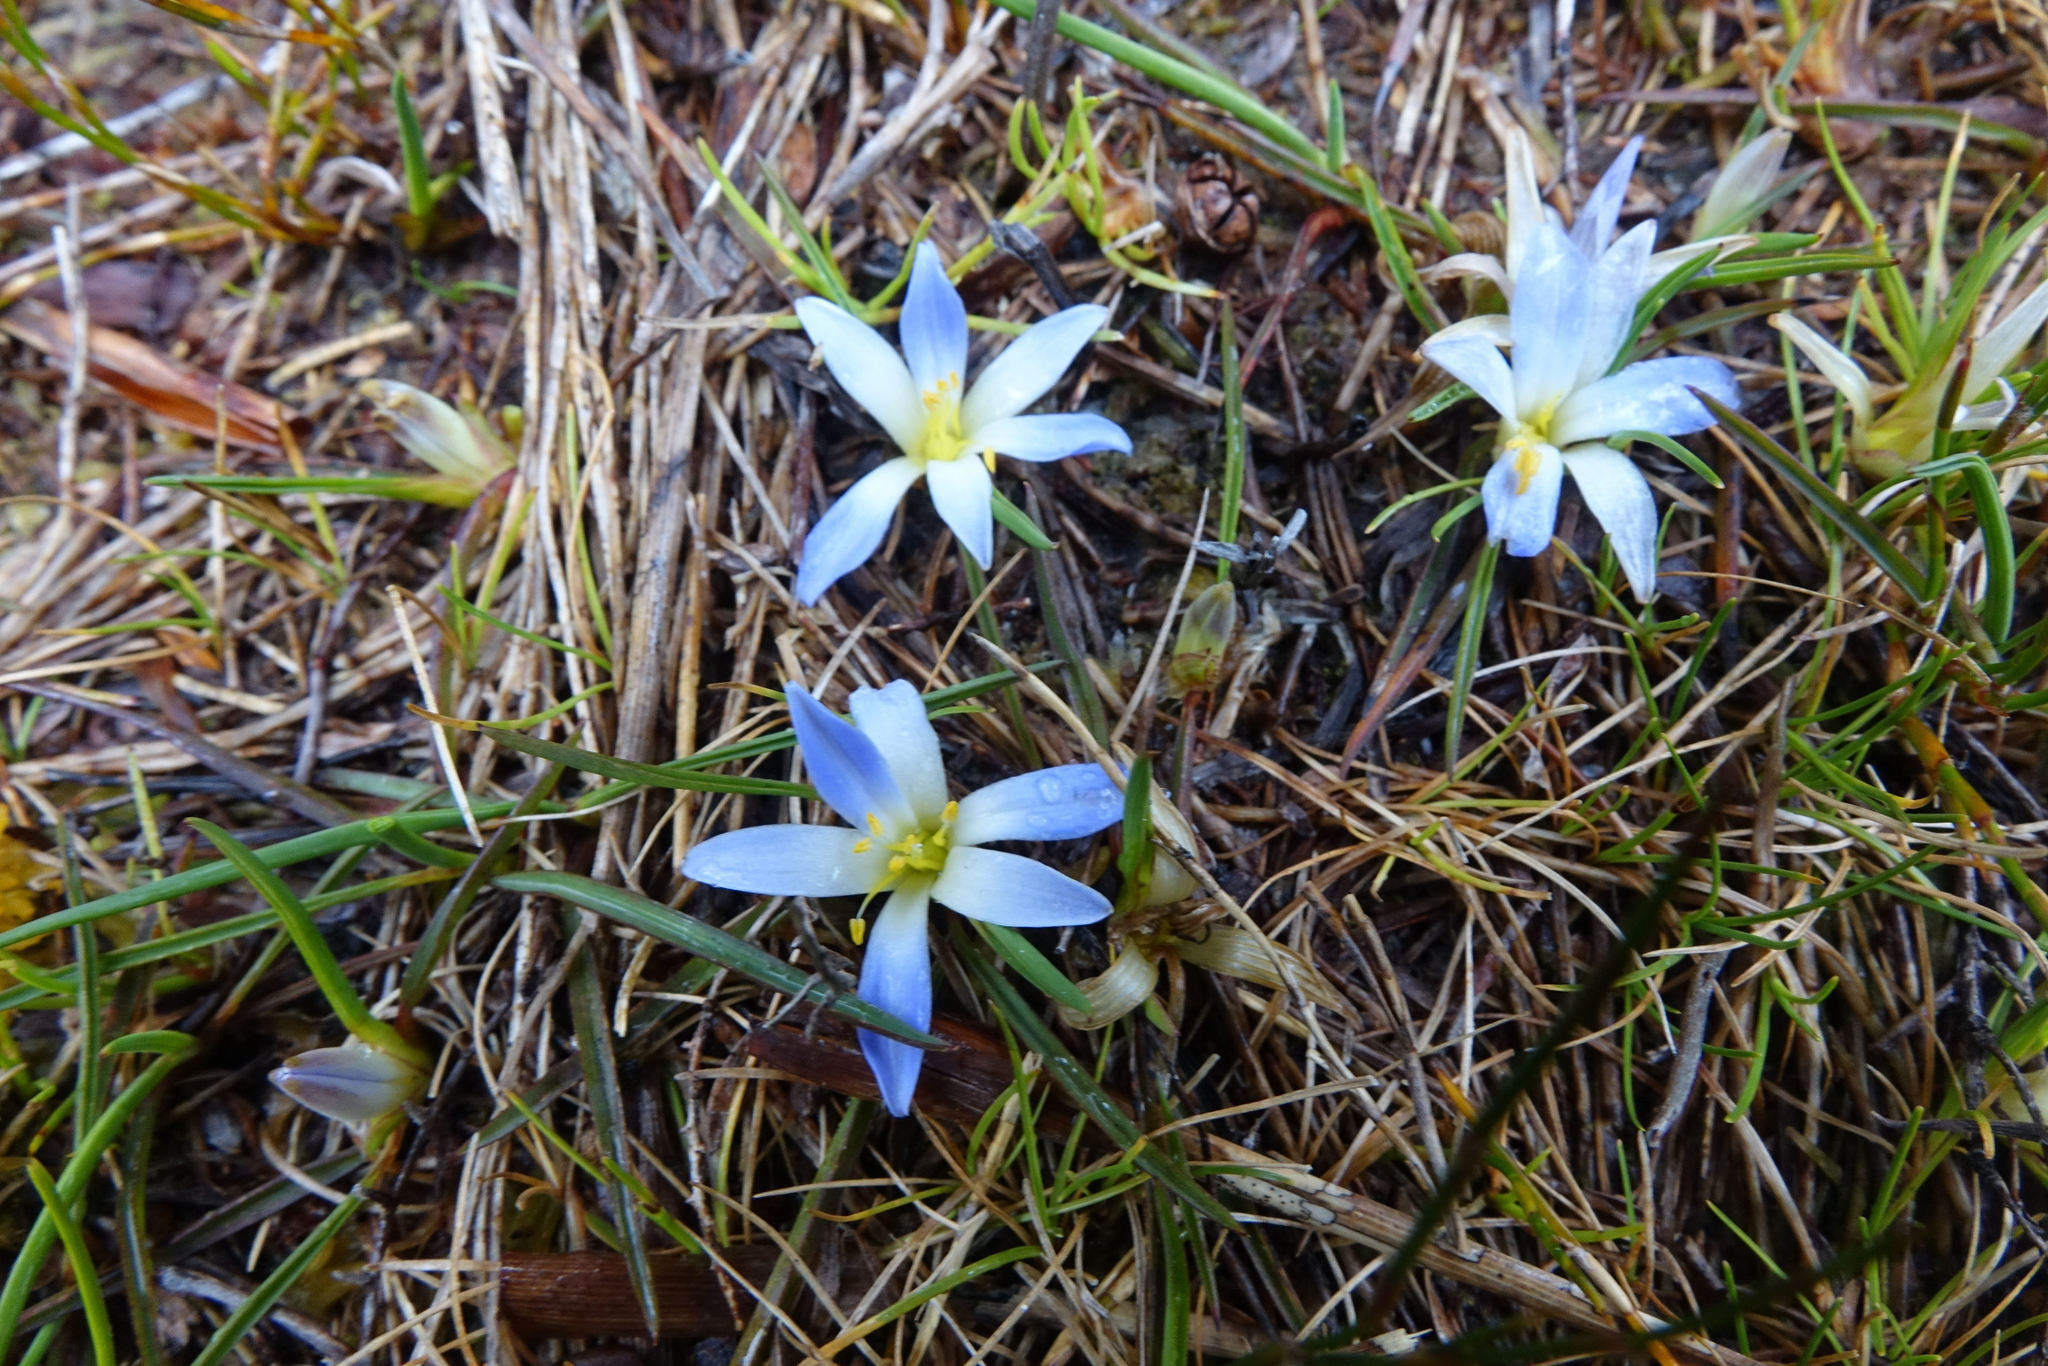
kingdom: Plantae
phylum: Tracheophyta
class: Liliopsida
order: Asparagales
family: Asphodelaceae
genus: Herpolirion
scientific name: Herpolirion novae-zelandiae
